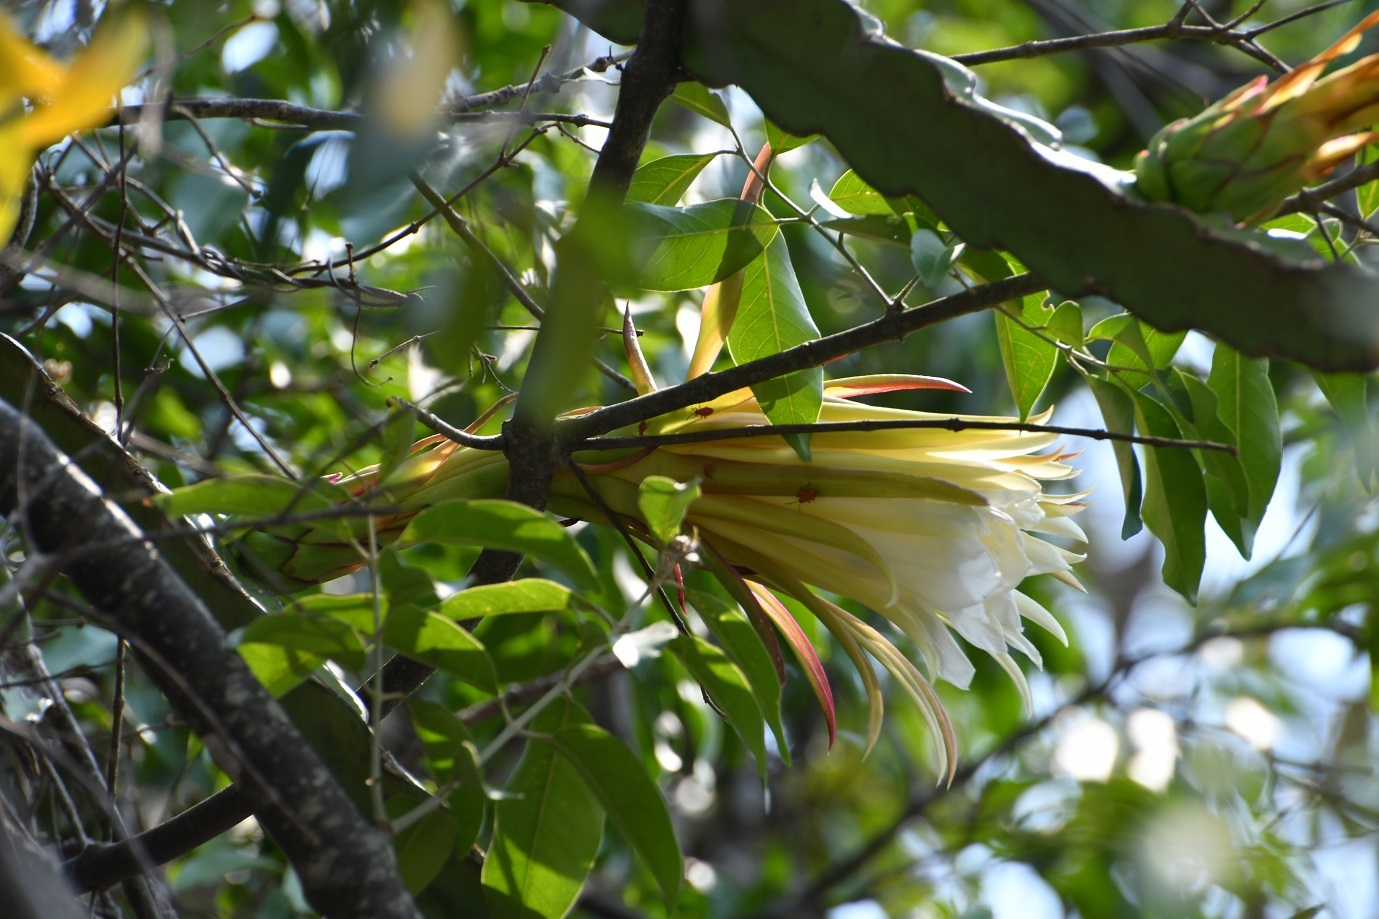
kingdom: Plantae
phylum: Tracheophyta
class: Magnoliopsida
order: Caryophyllales
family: Cactaceae
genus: Selenicereus
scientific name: Selenicereus ocamponis
